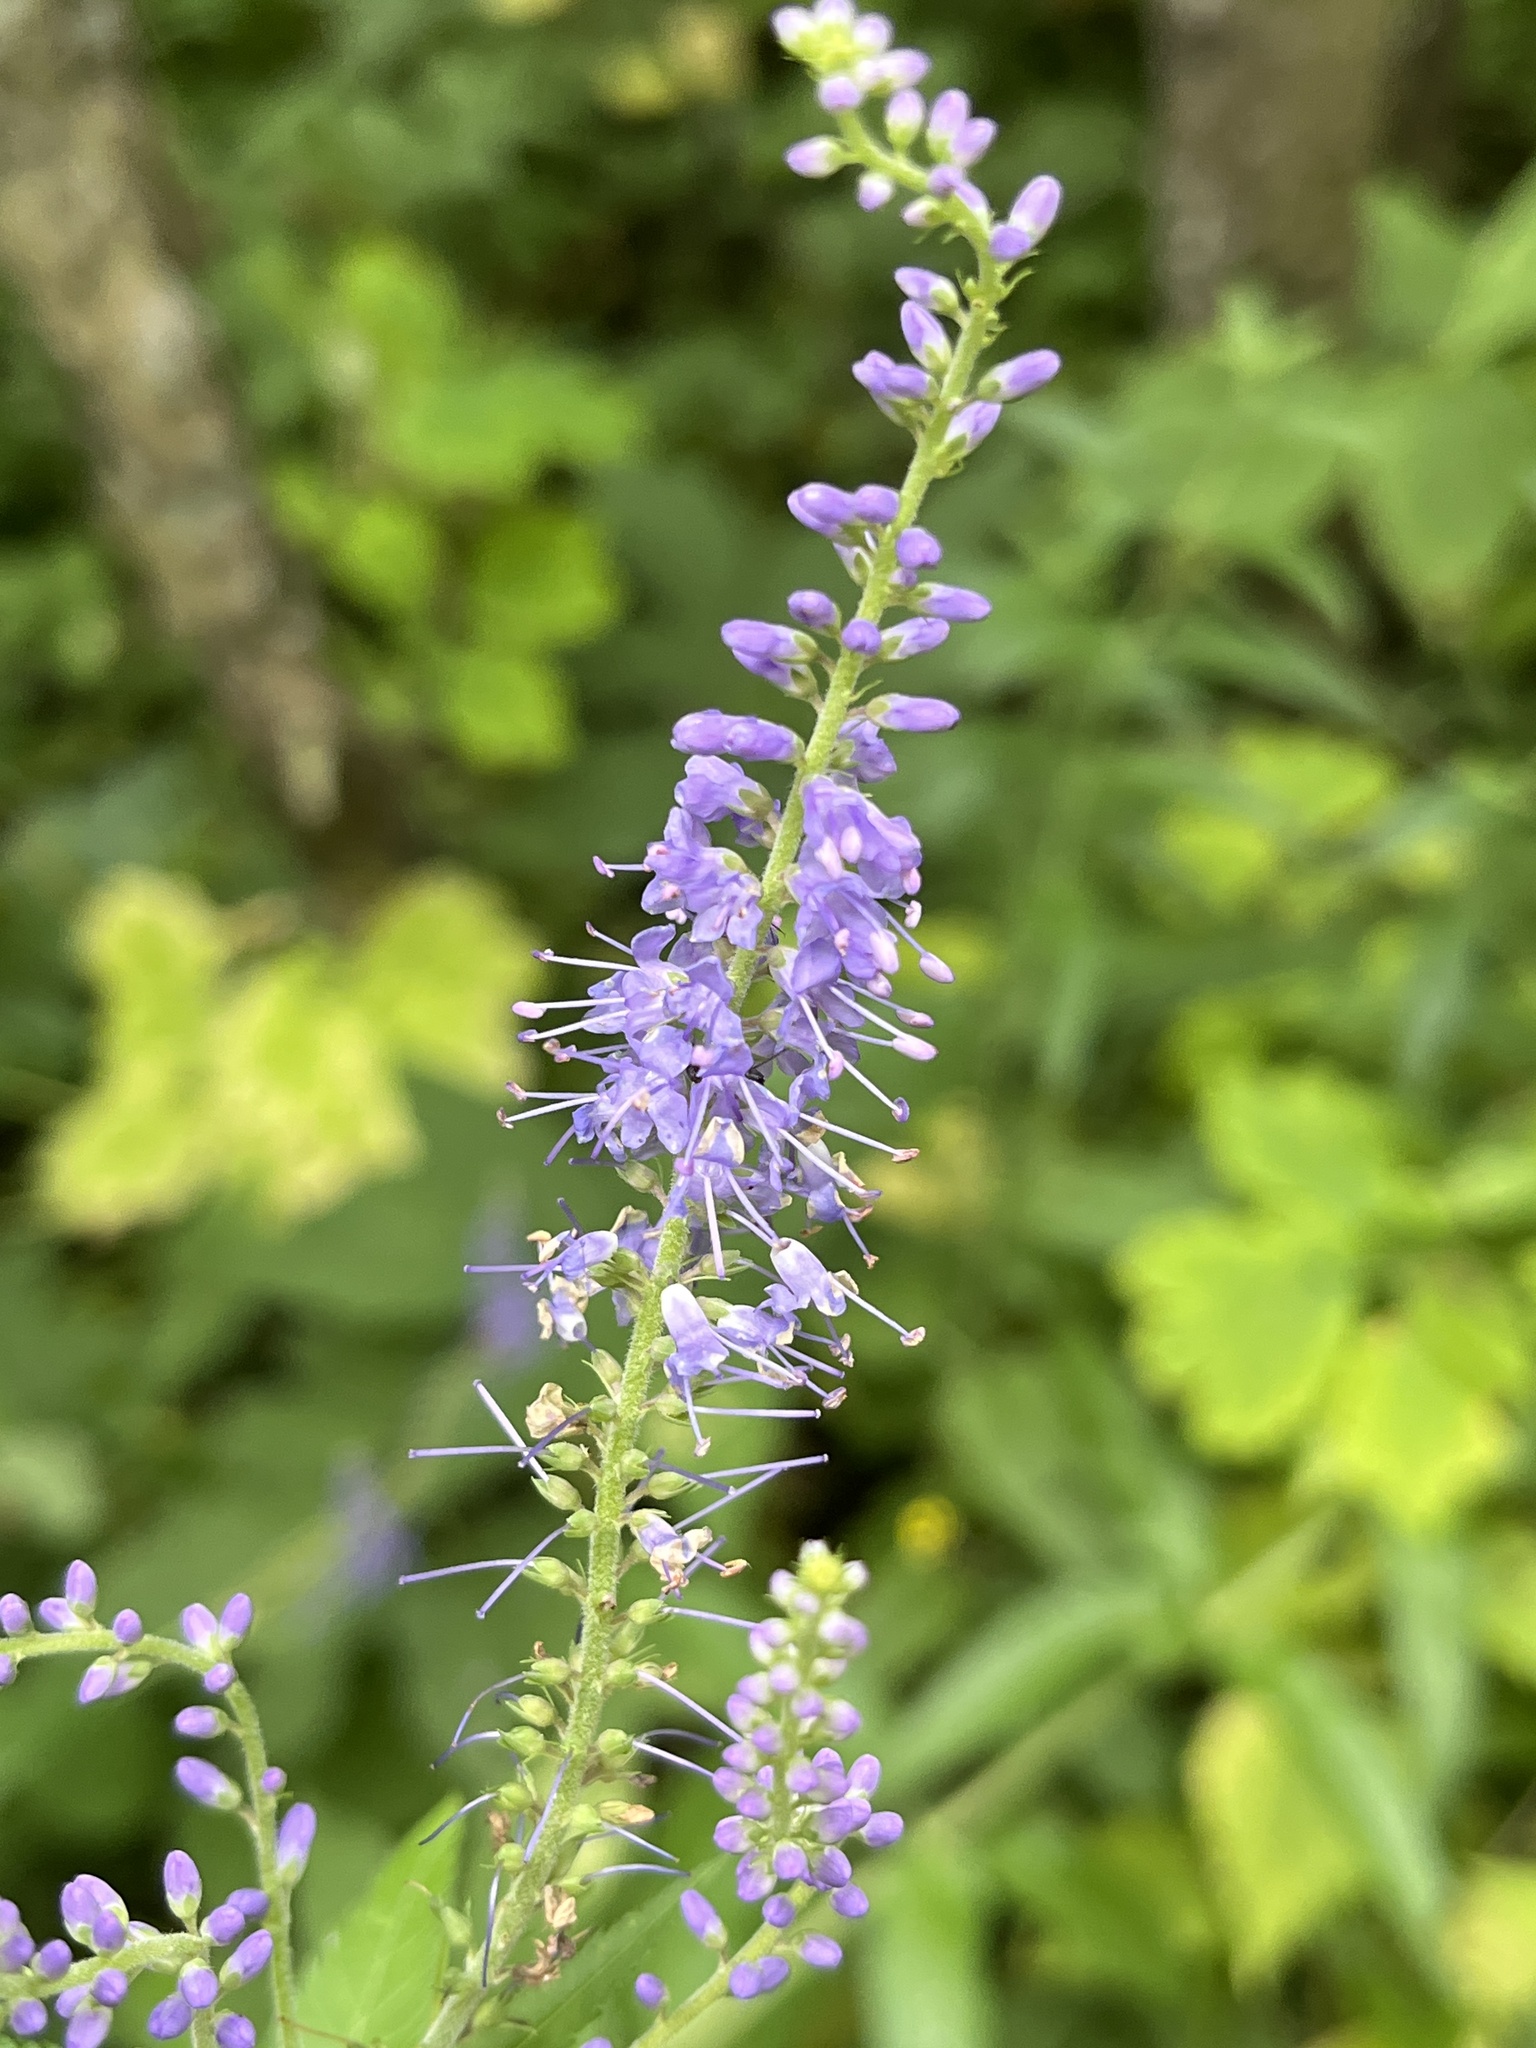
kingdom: Plantae
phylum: Tracheophyta
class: Magnoliopsida
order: Lamiales
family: Plantaginaceae
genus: Veronica
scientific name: Veronica longifolia
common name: Garden speedwell
